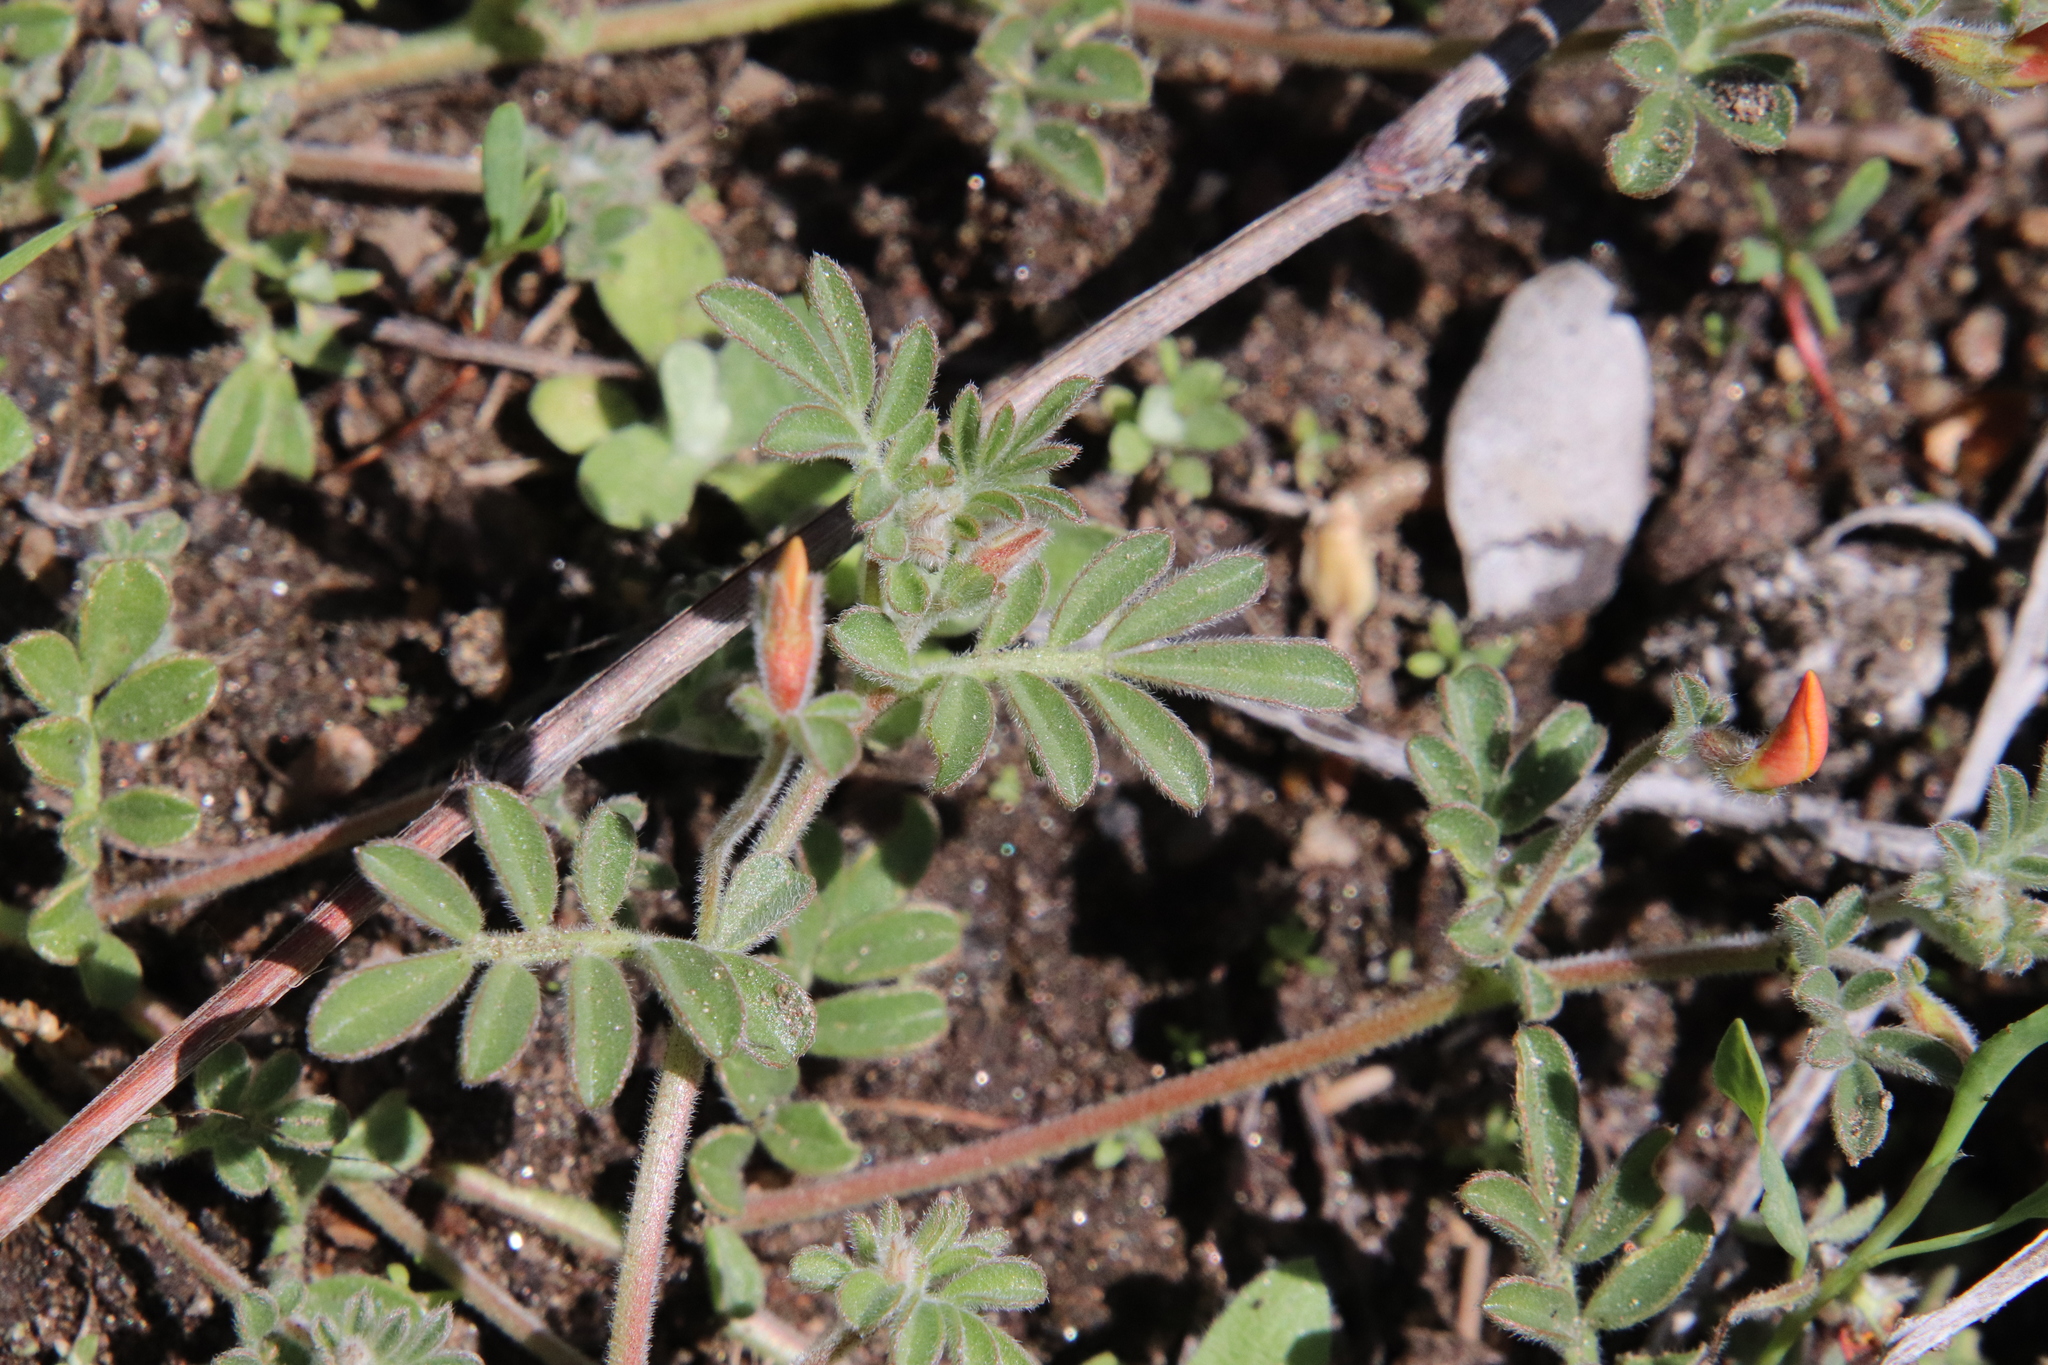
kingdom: Plantae
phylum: Tracheophyta
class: Magnoliopsida
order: Fabales
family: Fabaceae
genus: Acmispon
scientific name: Acmispon strigosus
